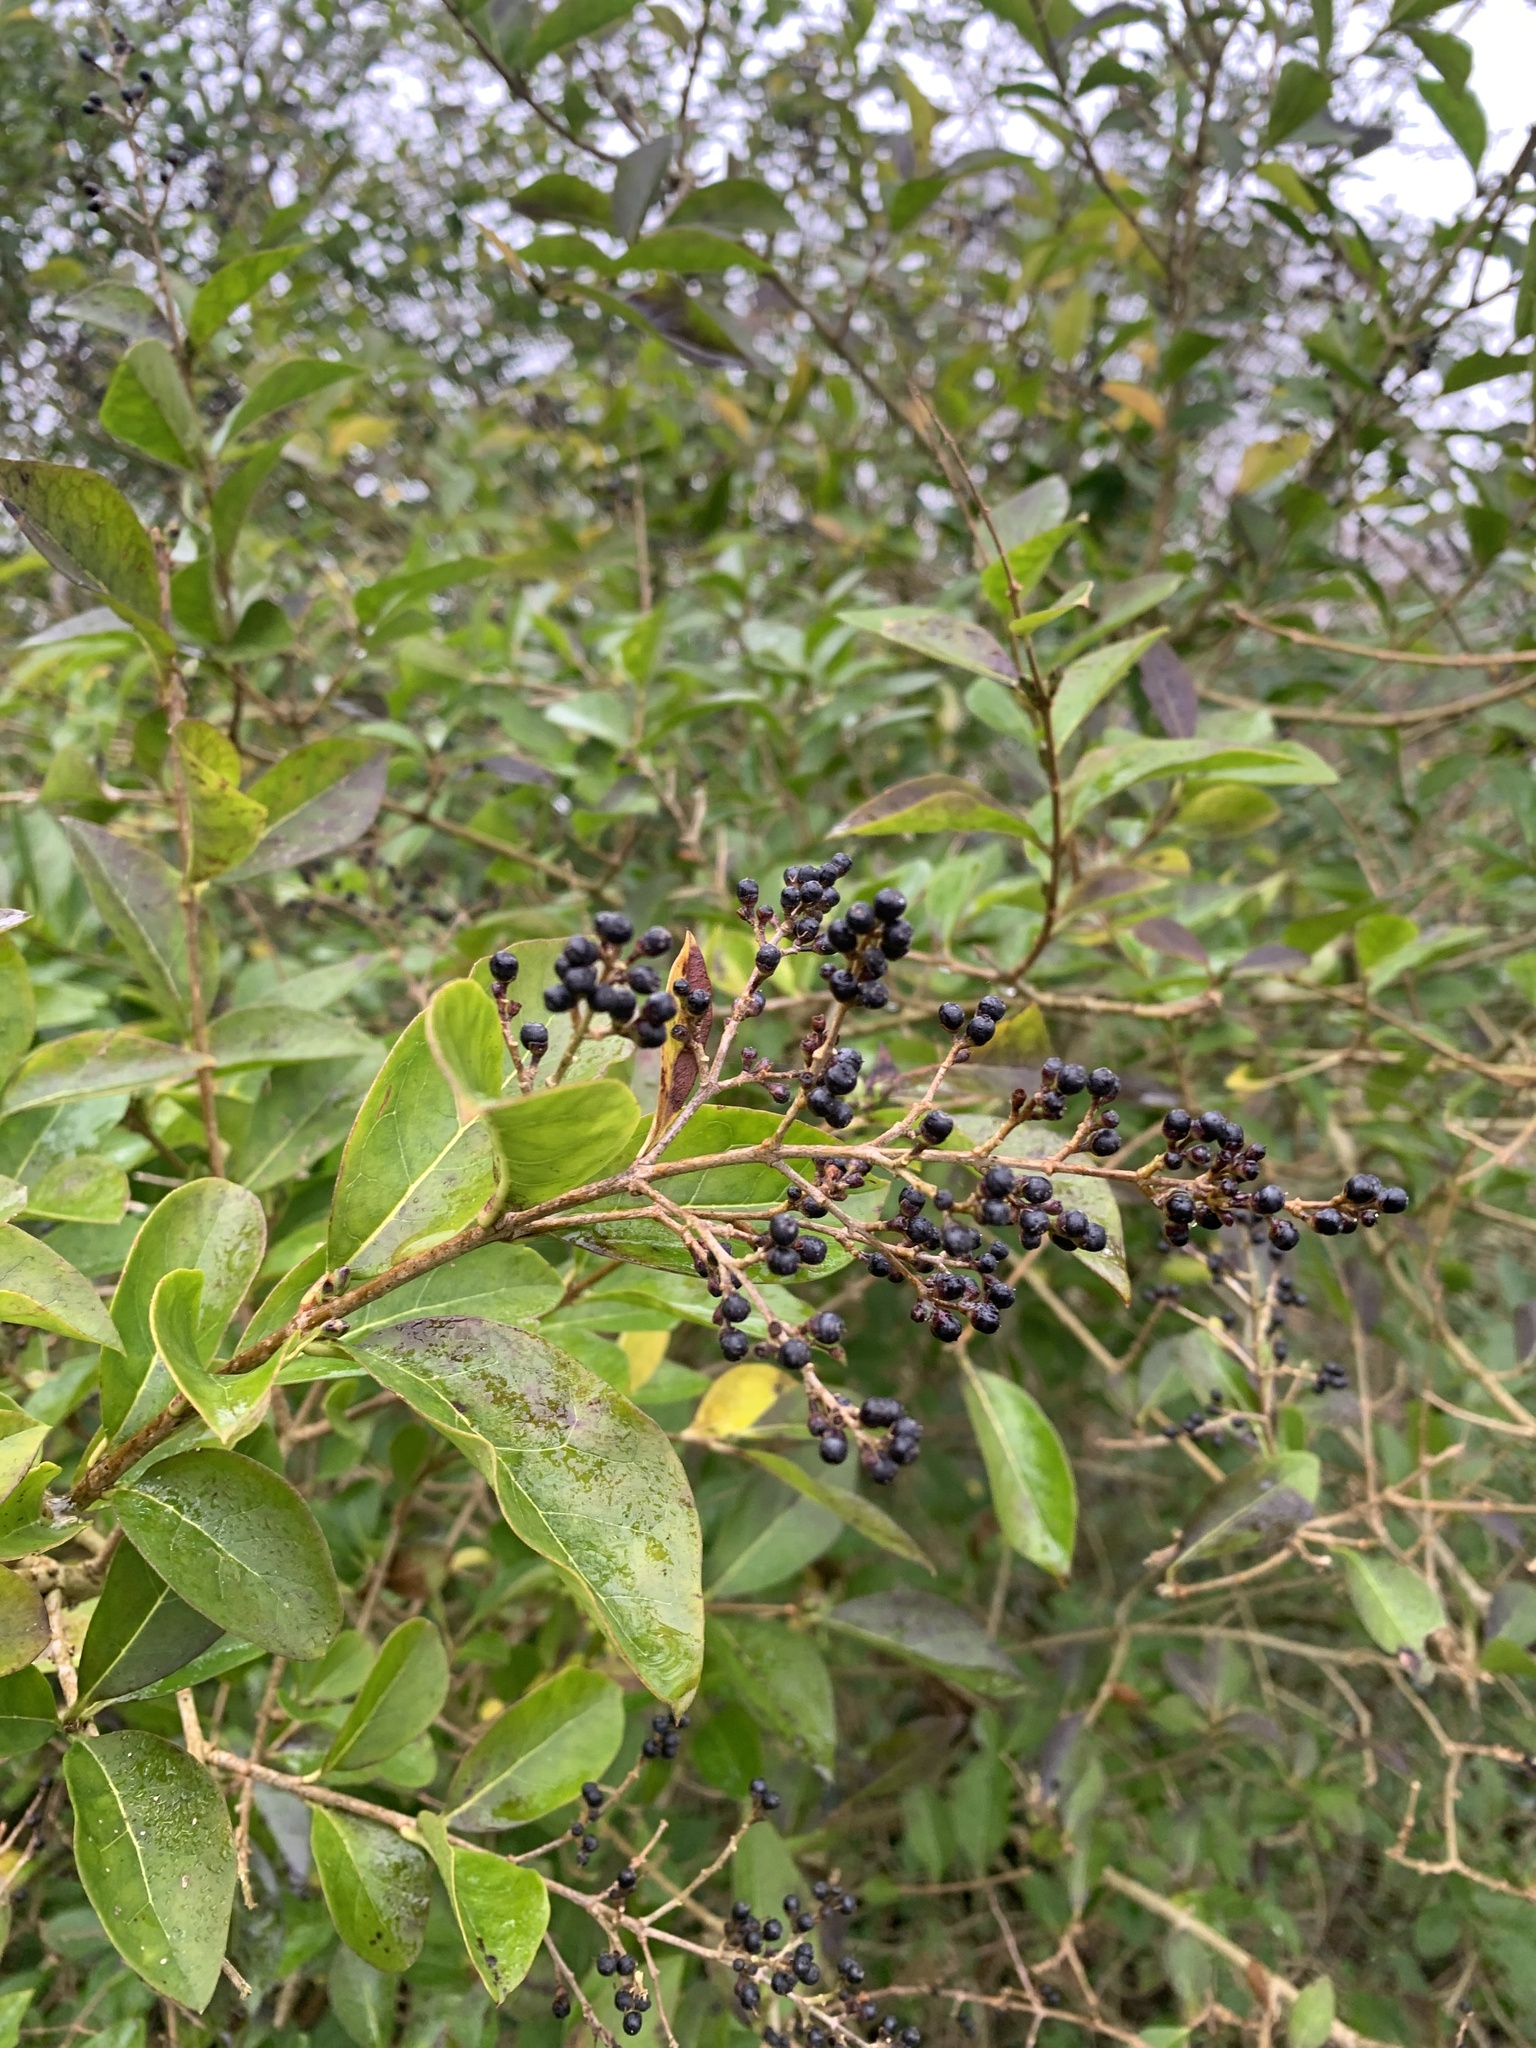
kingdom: Plantae
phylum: Tracheophyta
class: Magnoliopsida
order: Lamiales
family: Oleaceae
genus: Ligustrum
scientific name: Ligustrum ovalifolium
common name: California privet
